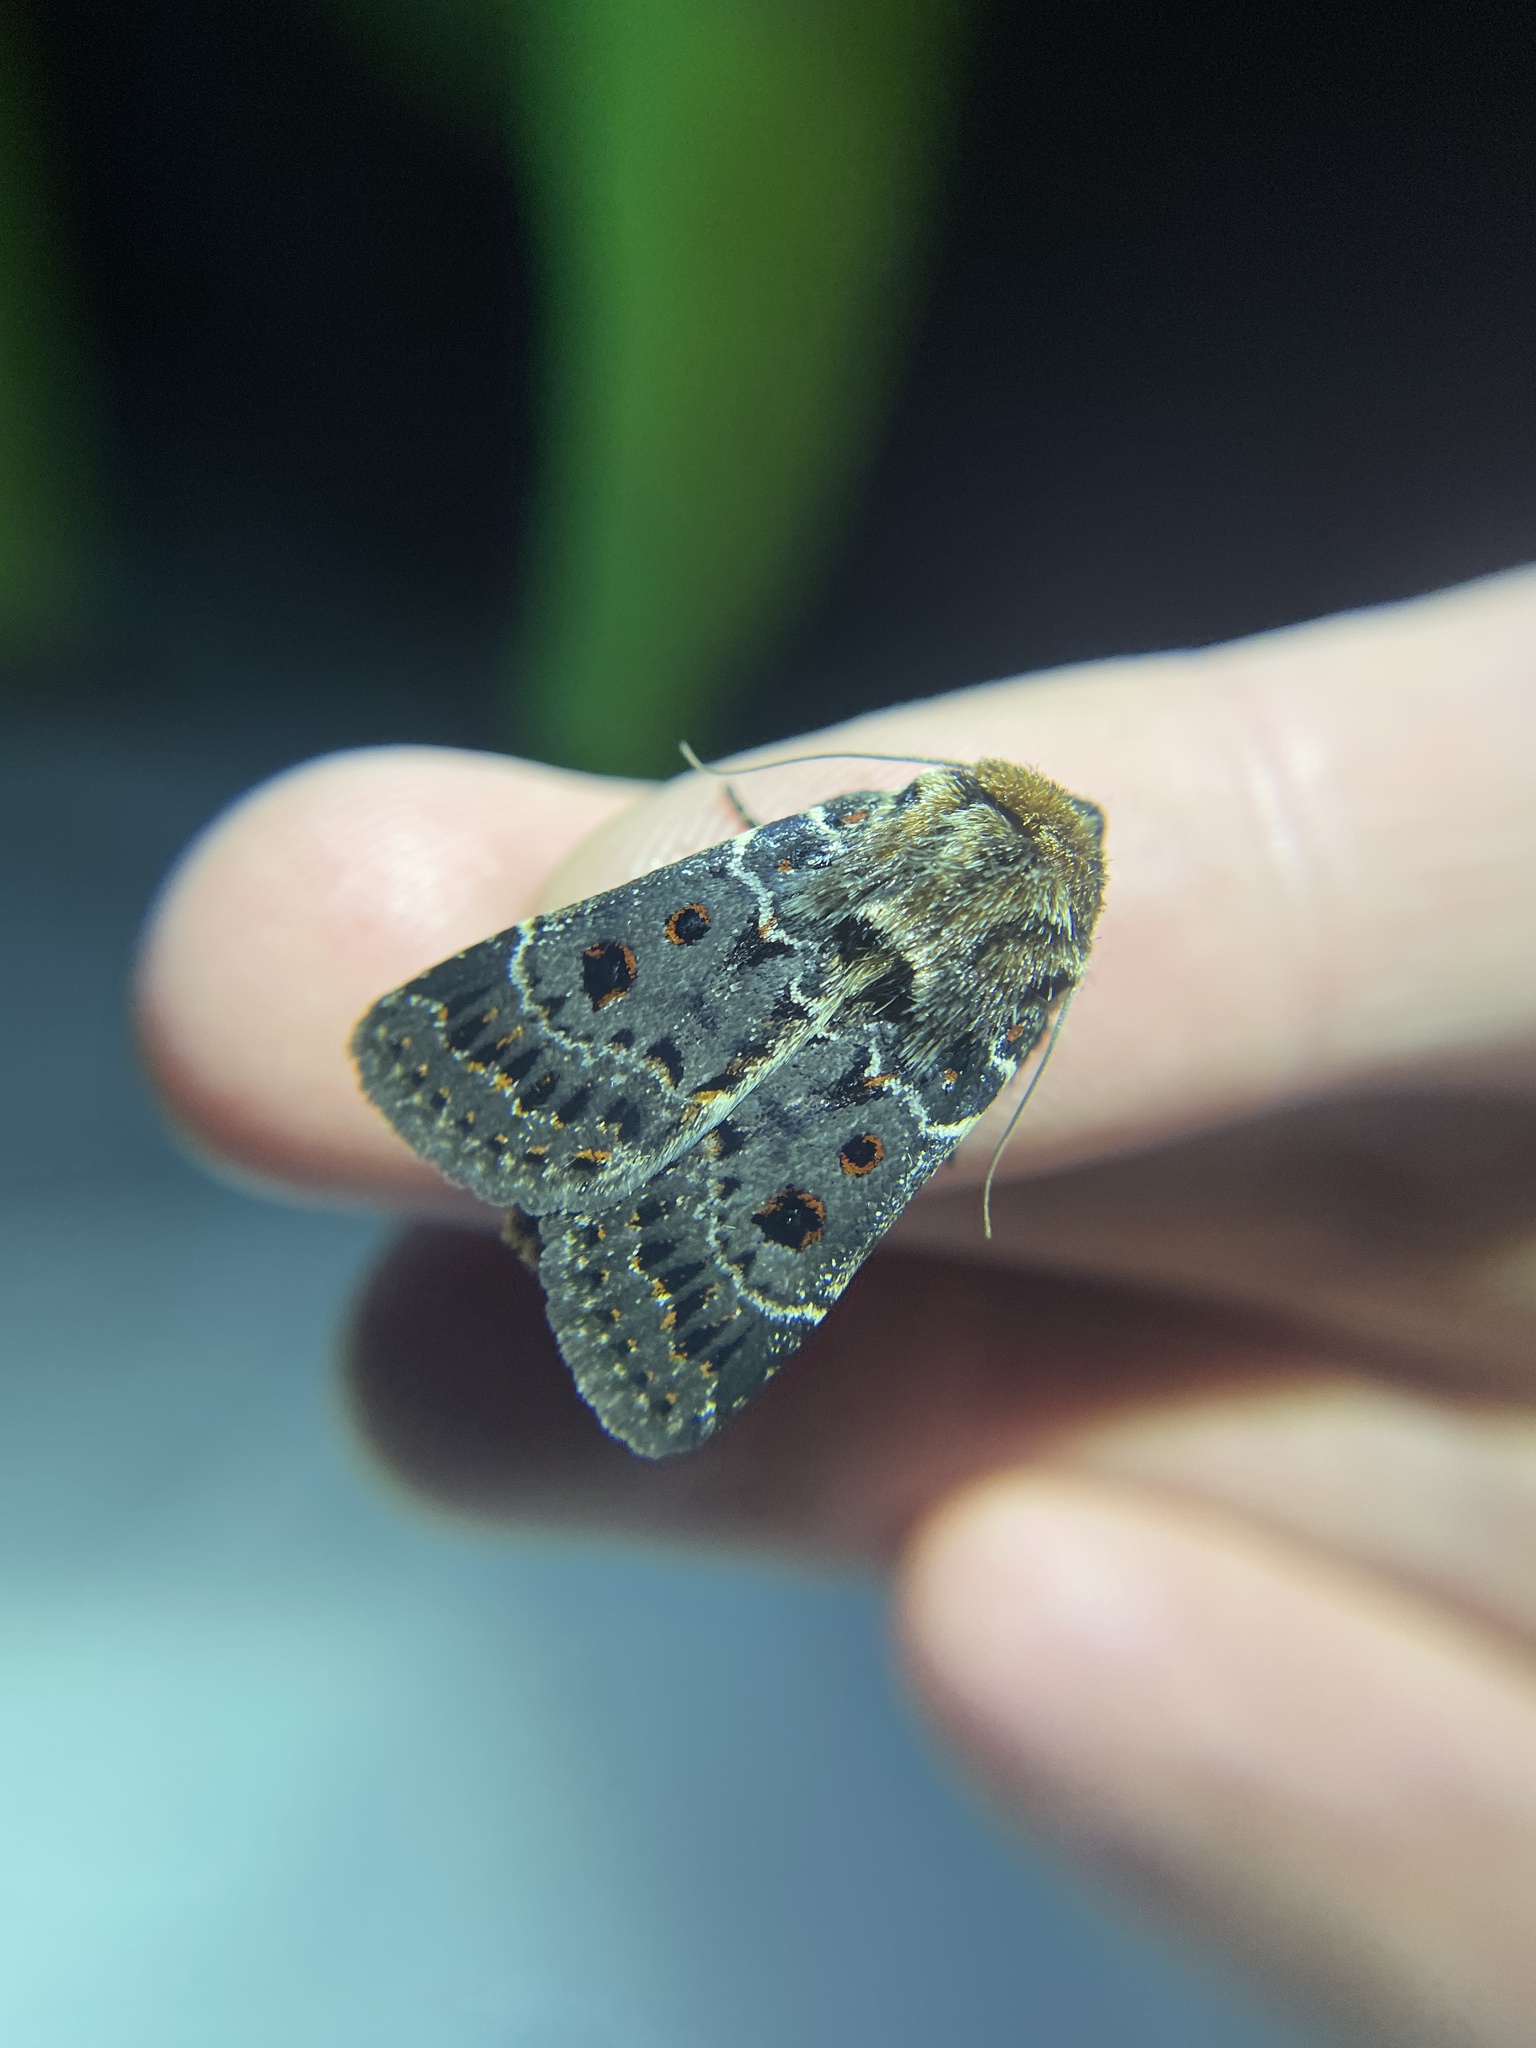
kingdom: Animalia
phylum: Arthropoda
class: Insecta
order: Lepidoptera
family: Noctuidae
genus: Proteuxoa
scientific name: Proteuxoa sanguinipuncta
